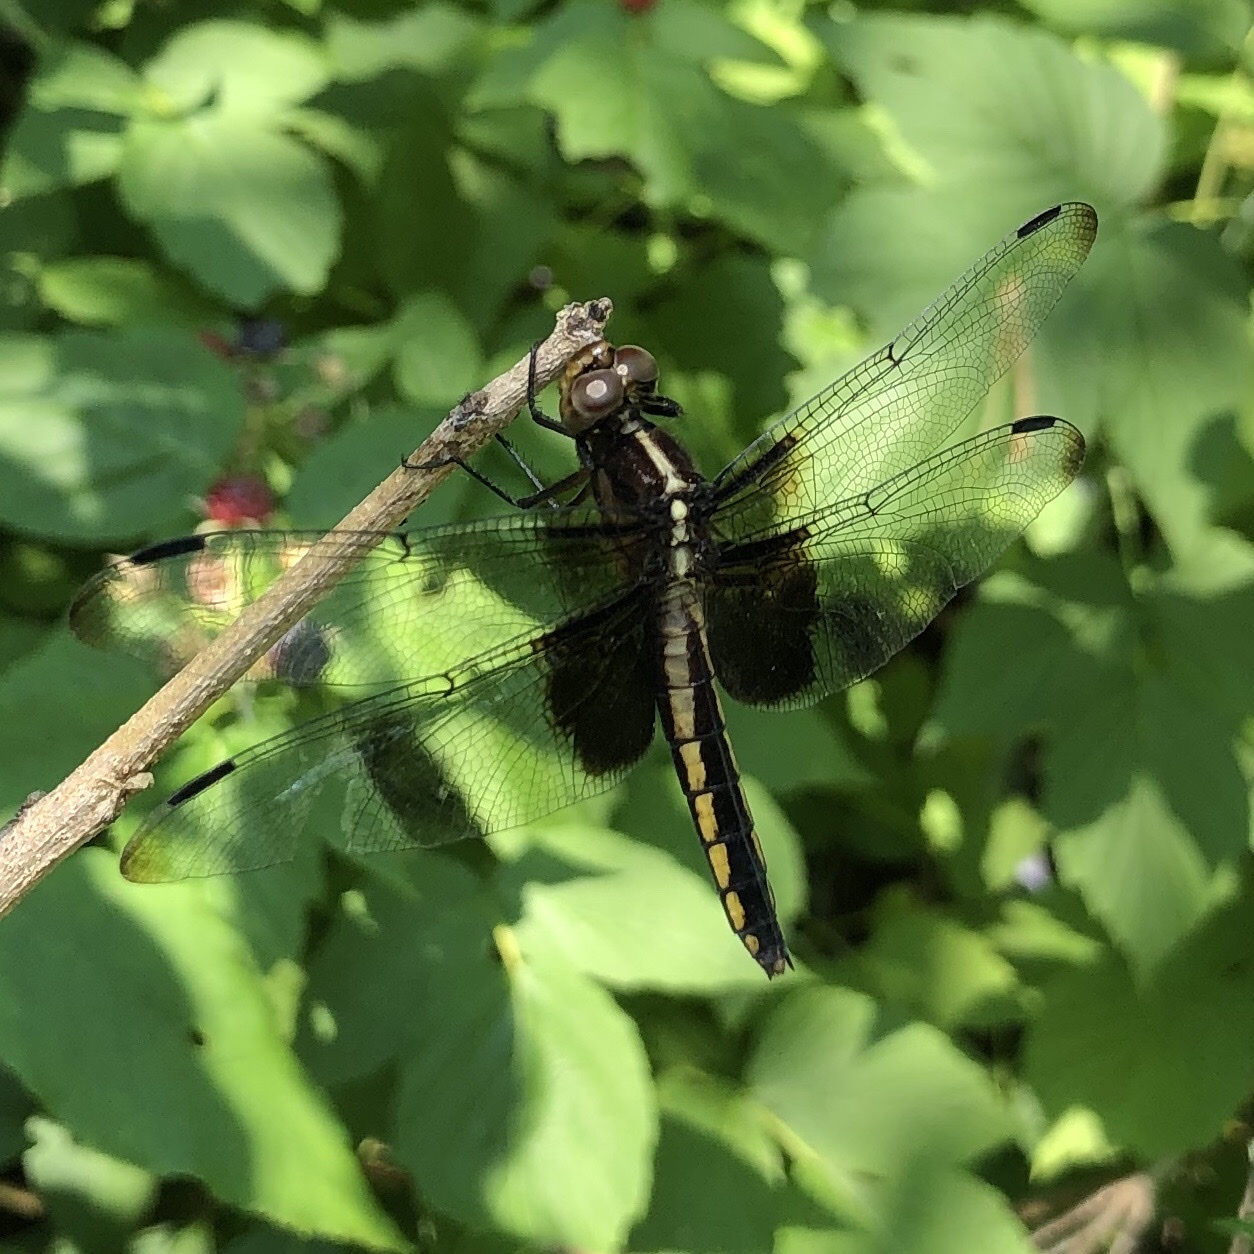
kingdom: Animalia
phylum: Arthropoda
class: Insecta
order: Odonata
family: Libellulidae
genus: Libellula
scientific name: Libellula luctuosa
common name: Widow skimmer
